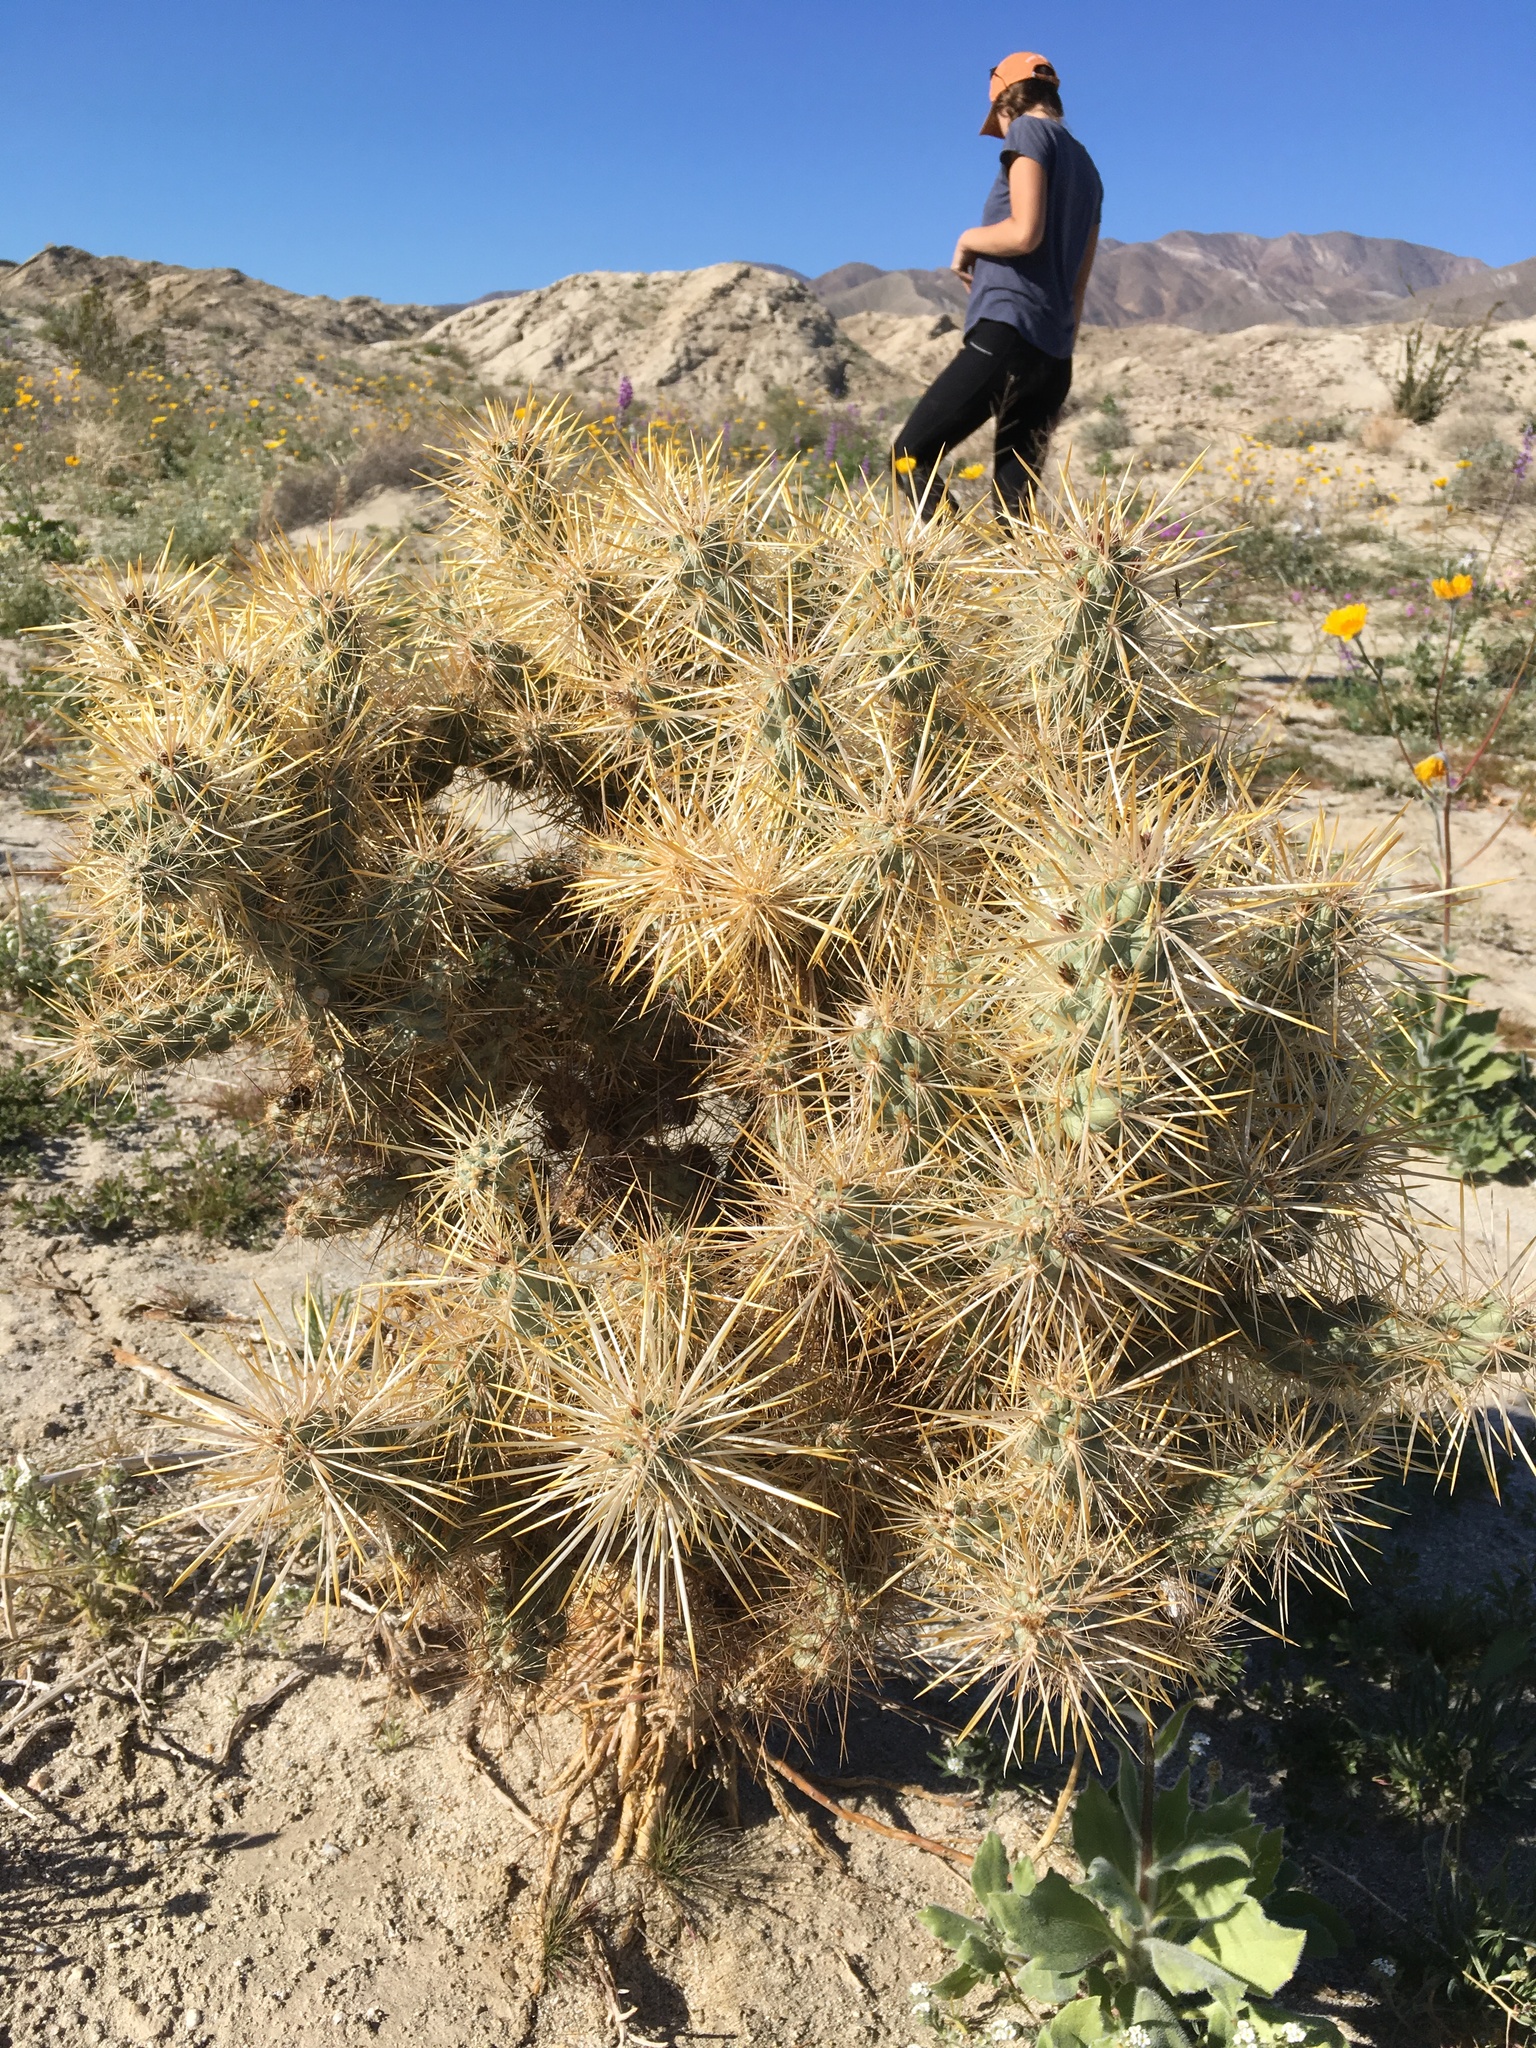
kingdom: Plantae
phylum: Tracheophyta
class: Magnoliopsida
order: Caryophyllales
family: Cactaceae
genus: Cylindropuntia
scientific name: Cylindropuntia echinocarpa
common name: Ground cholla
